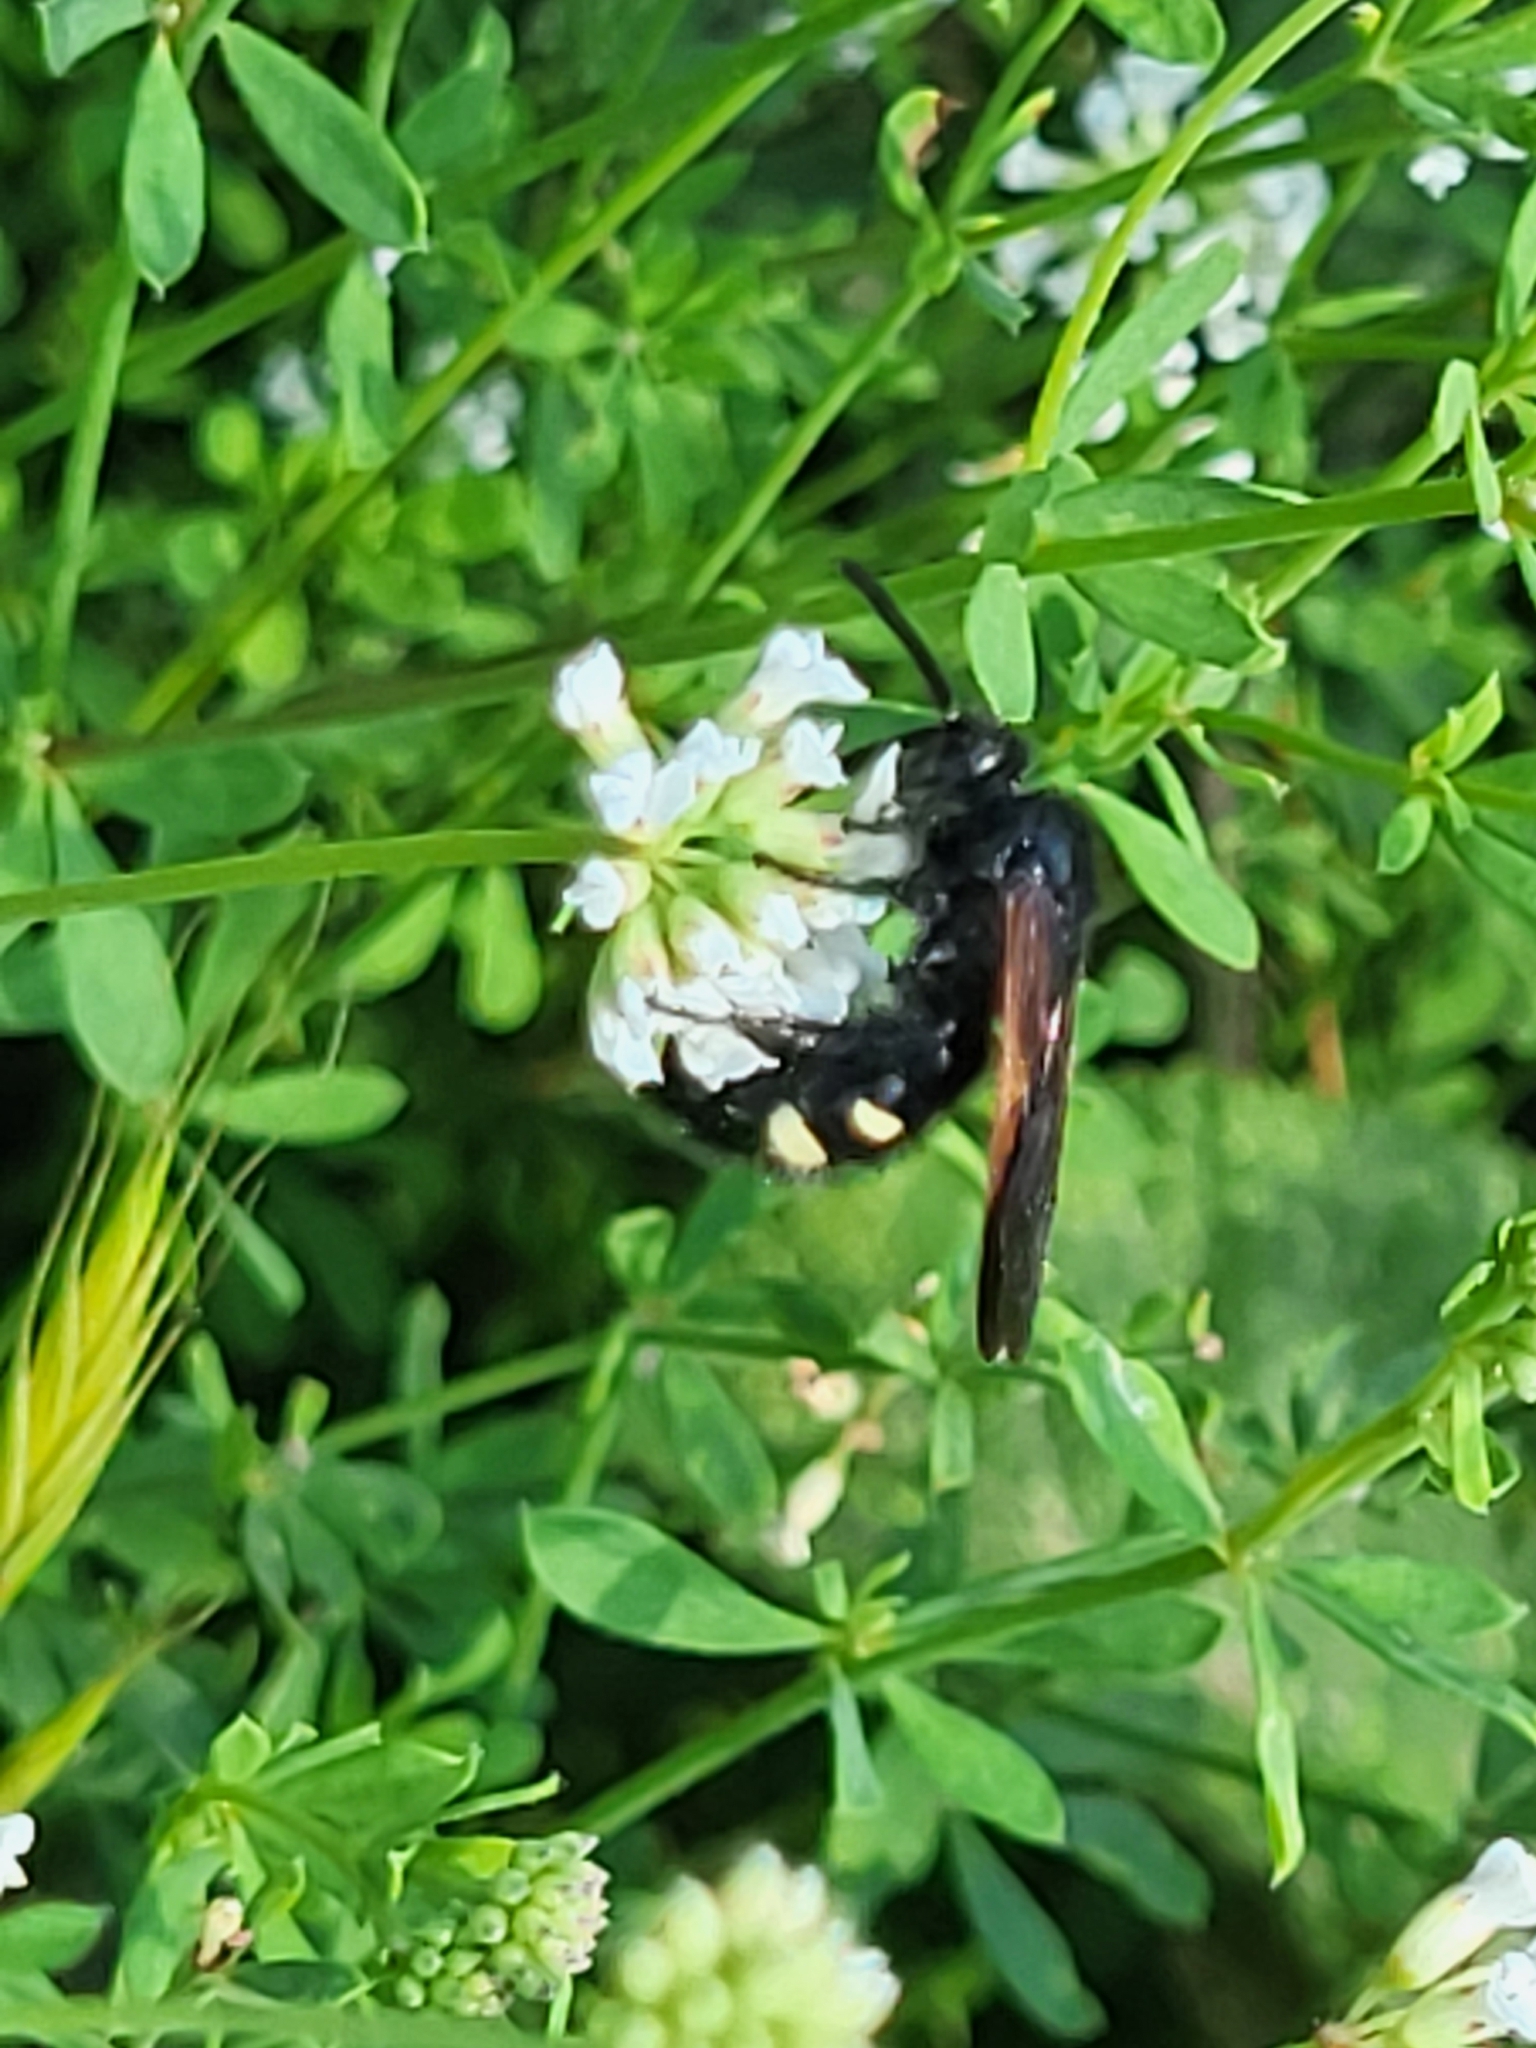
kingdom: Animalia
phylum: Arthropoda
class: Insecta
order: Hymenoptera
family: Vespidae
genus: Vespa
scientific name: Vespa sexmaculata
